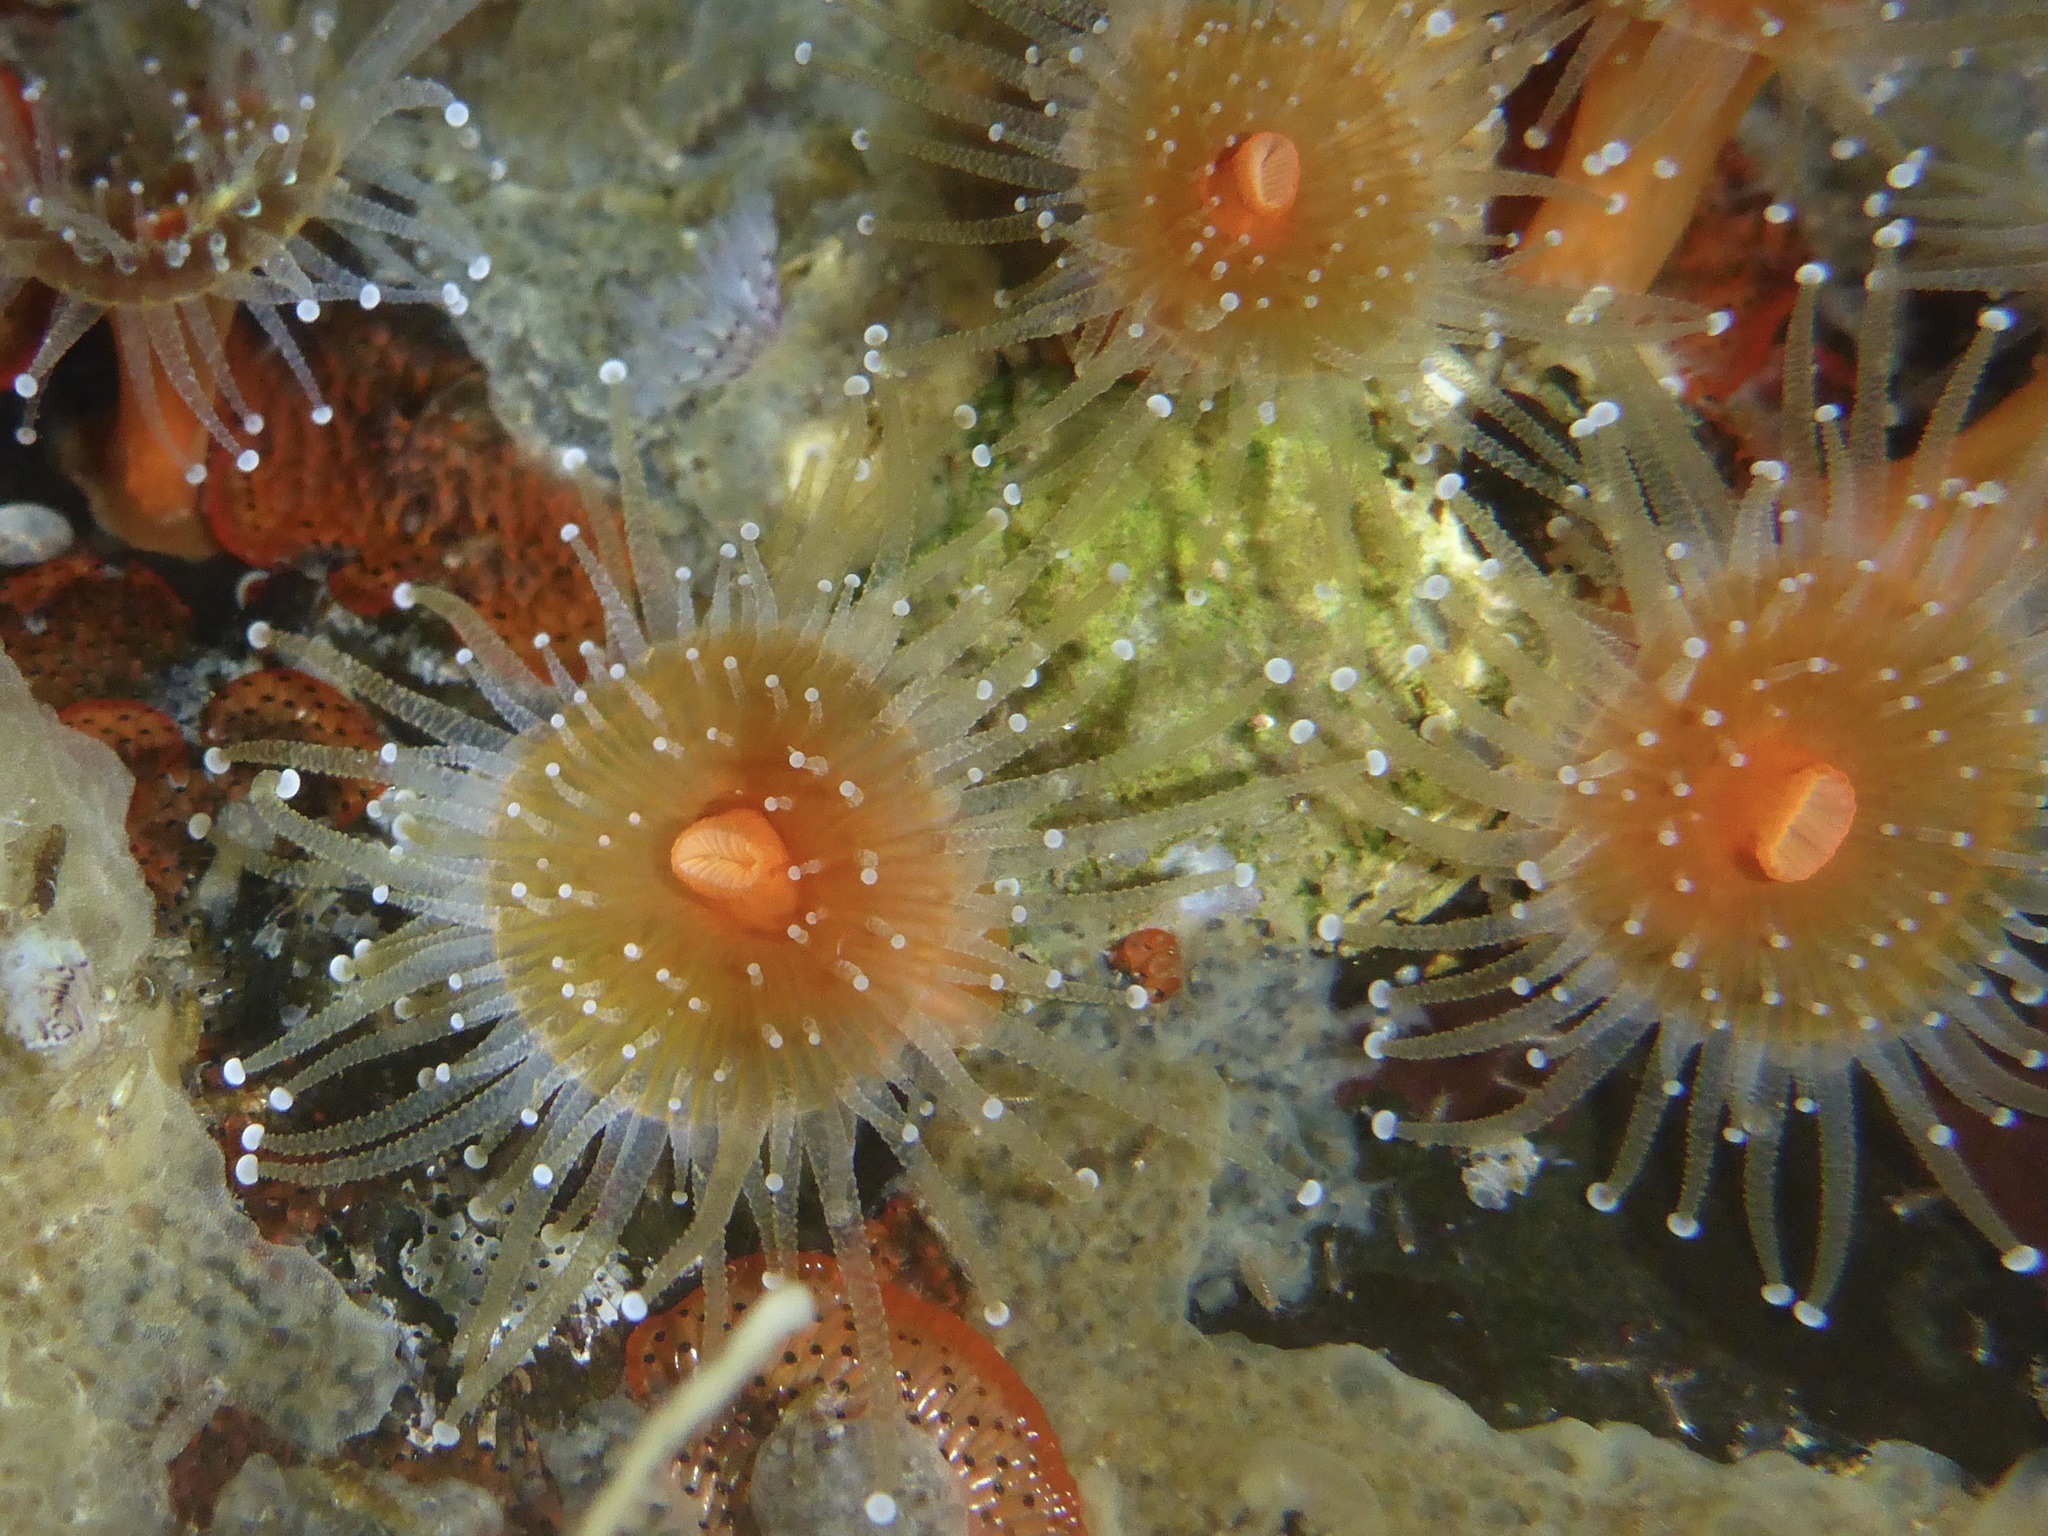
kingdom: Animalia
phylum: Cnidaria
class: Anthozoa
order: Corallimorpharia
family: Corallimorphidae
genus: Corynactis
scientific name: Corynactis californica
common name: Strawberry corallimorpharian
